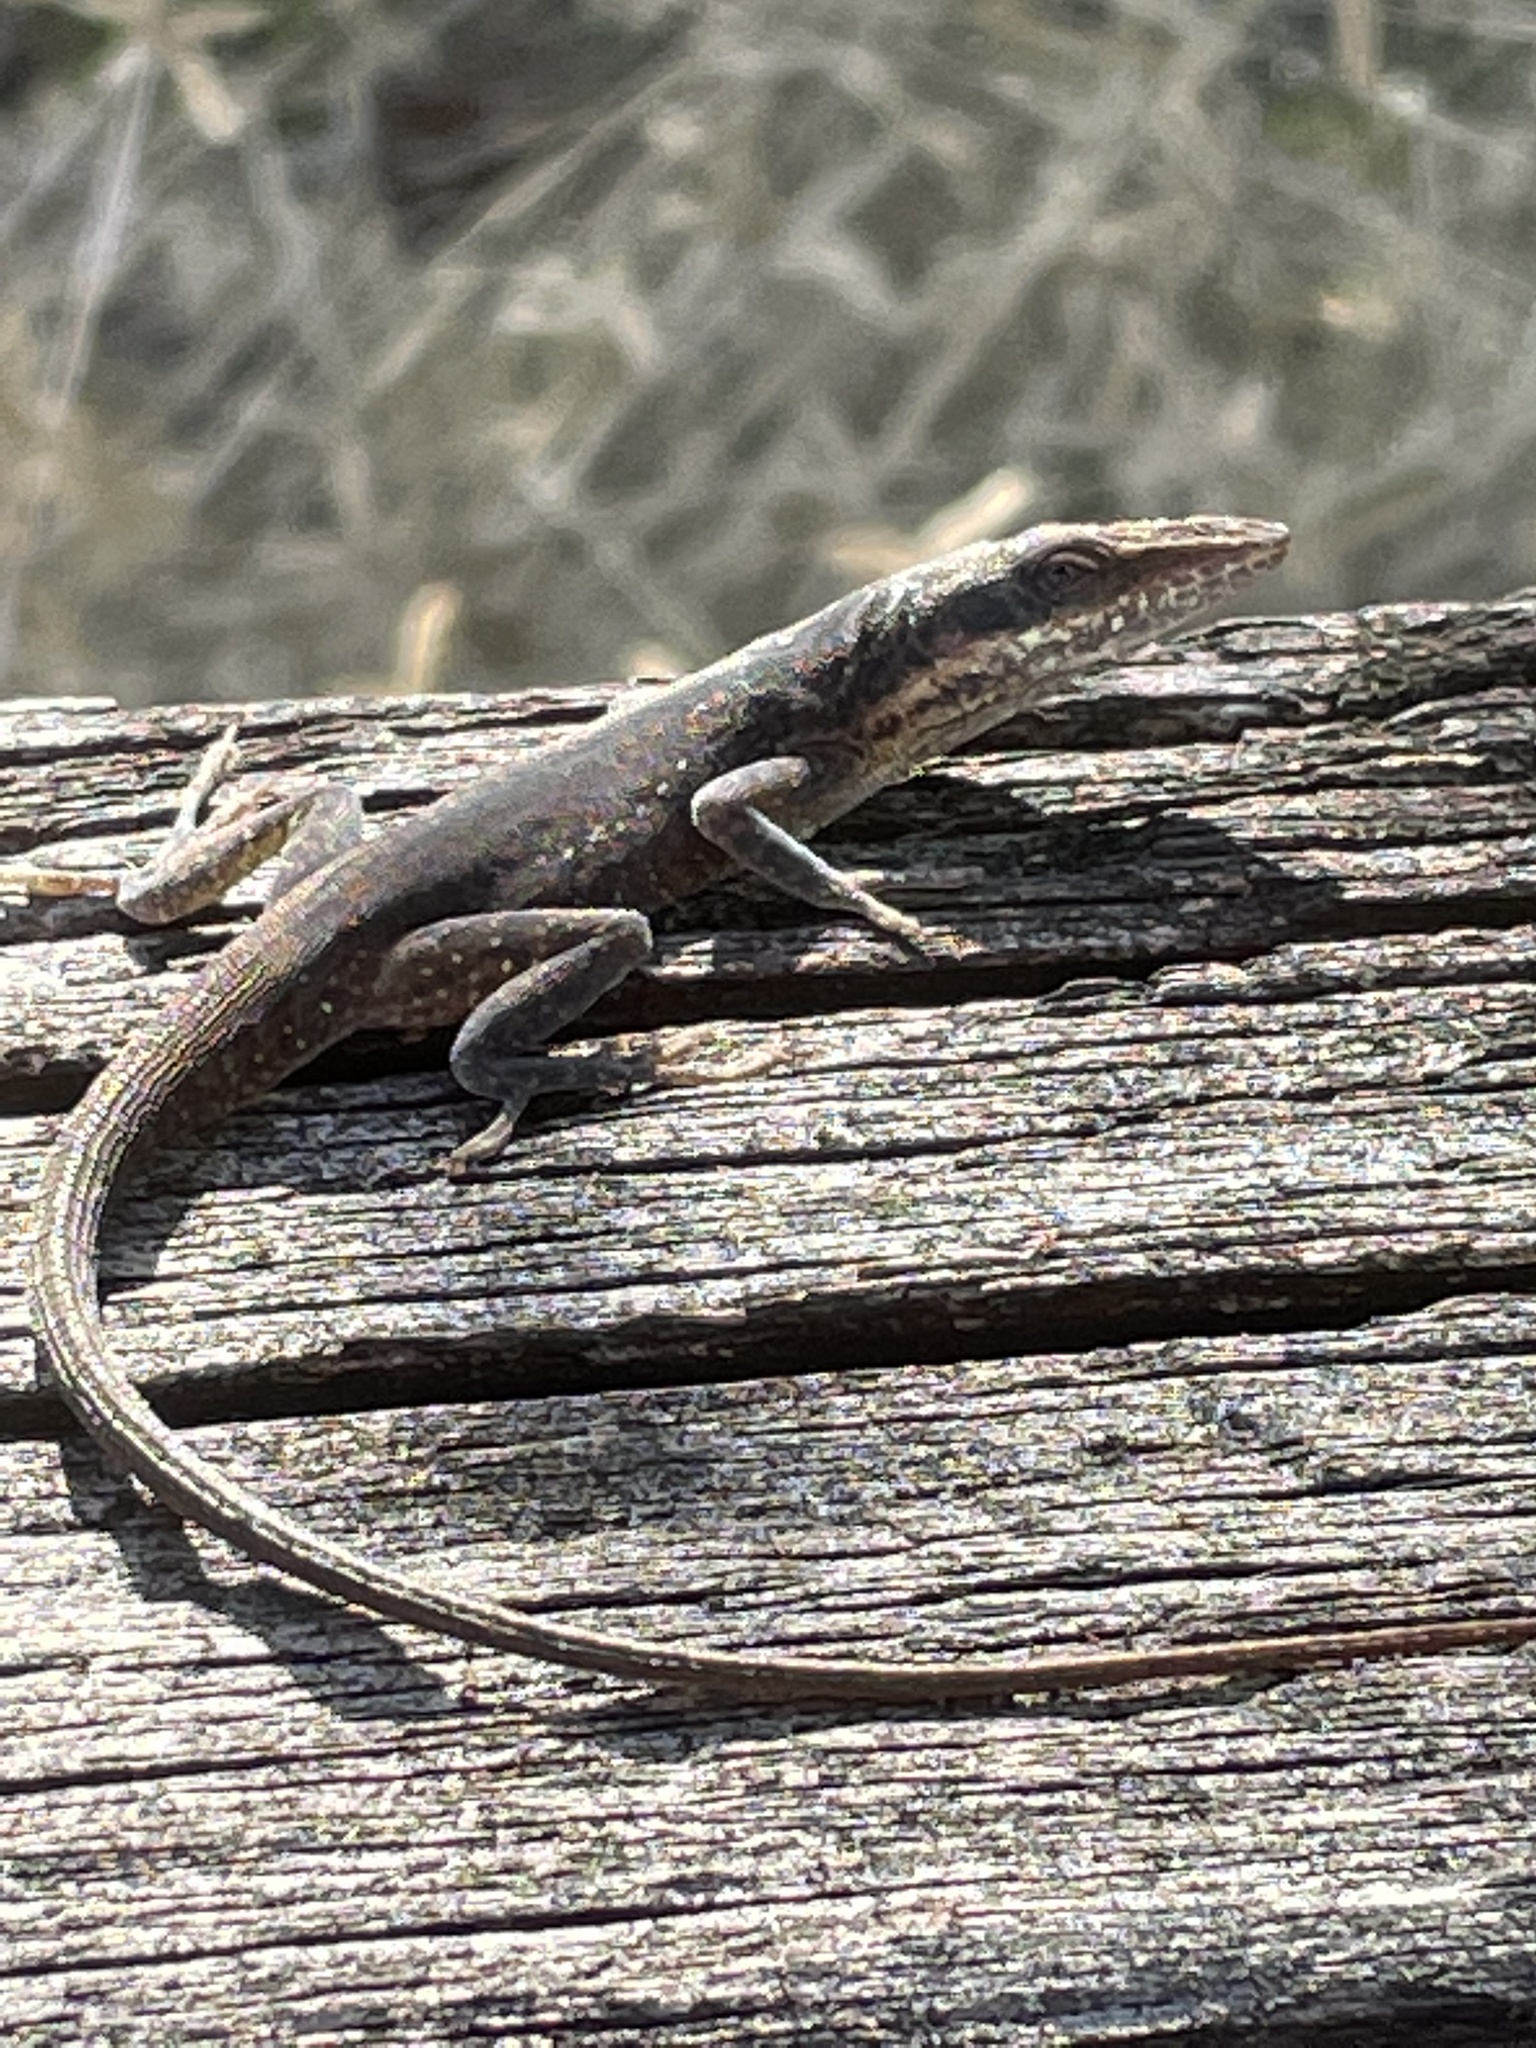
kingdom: Animalia
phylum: Chordata
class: Squamata
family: Dactyloidae
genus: Anolis
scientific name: Anolis carolinensis
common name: Green anole
